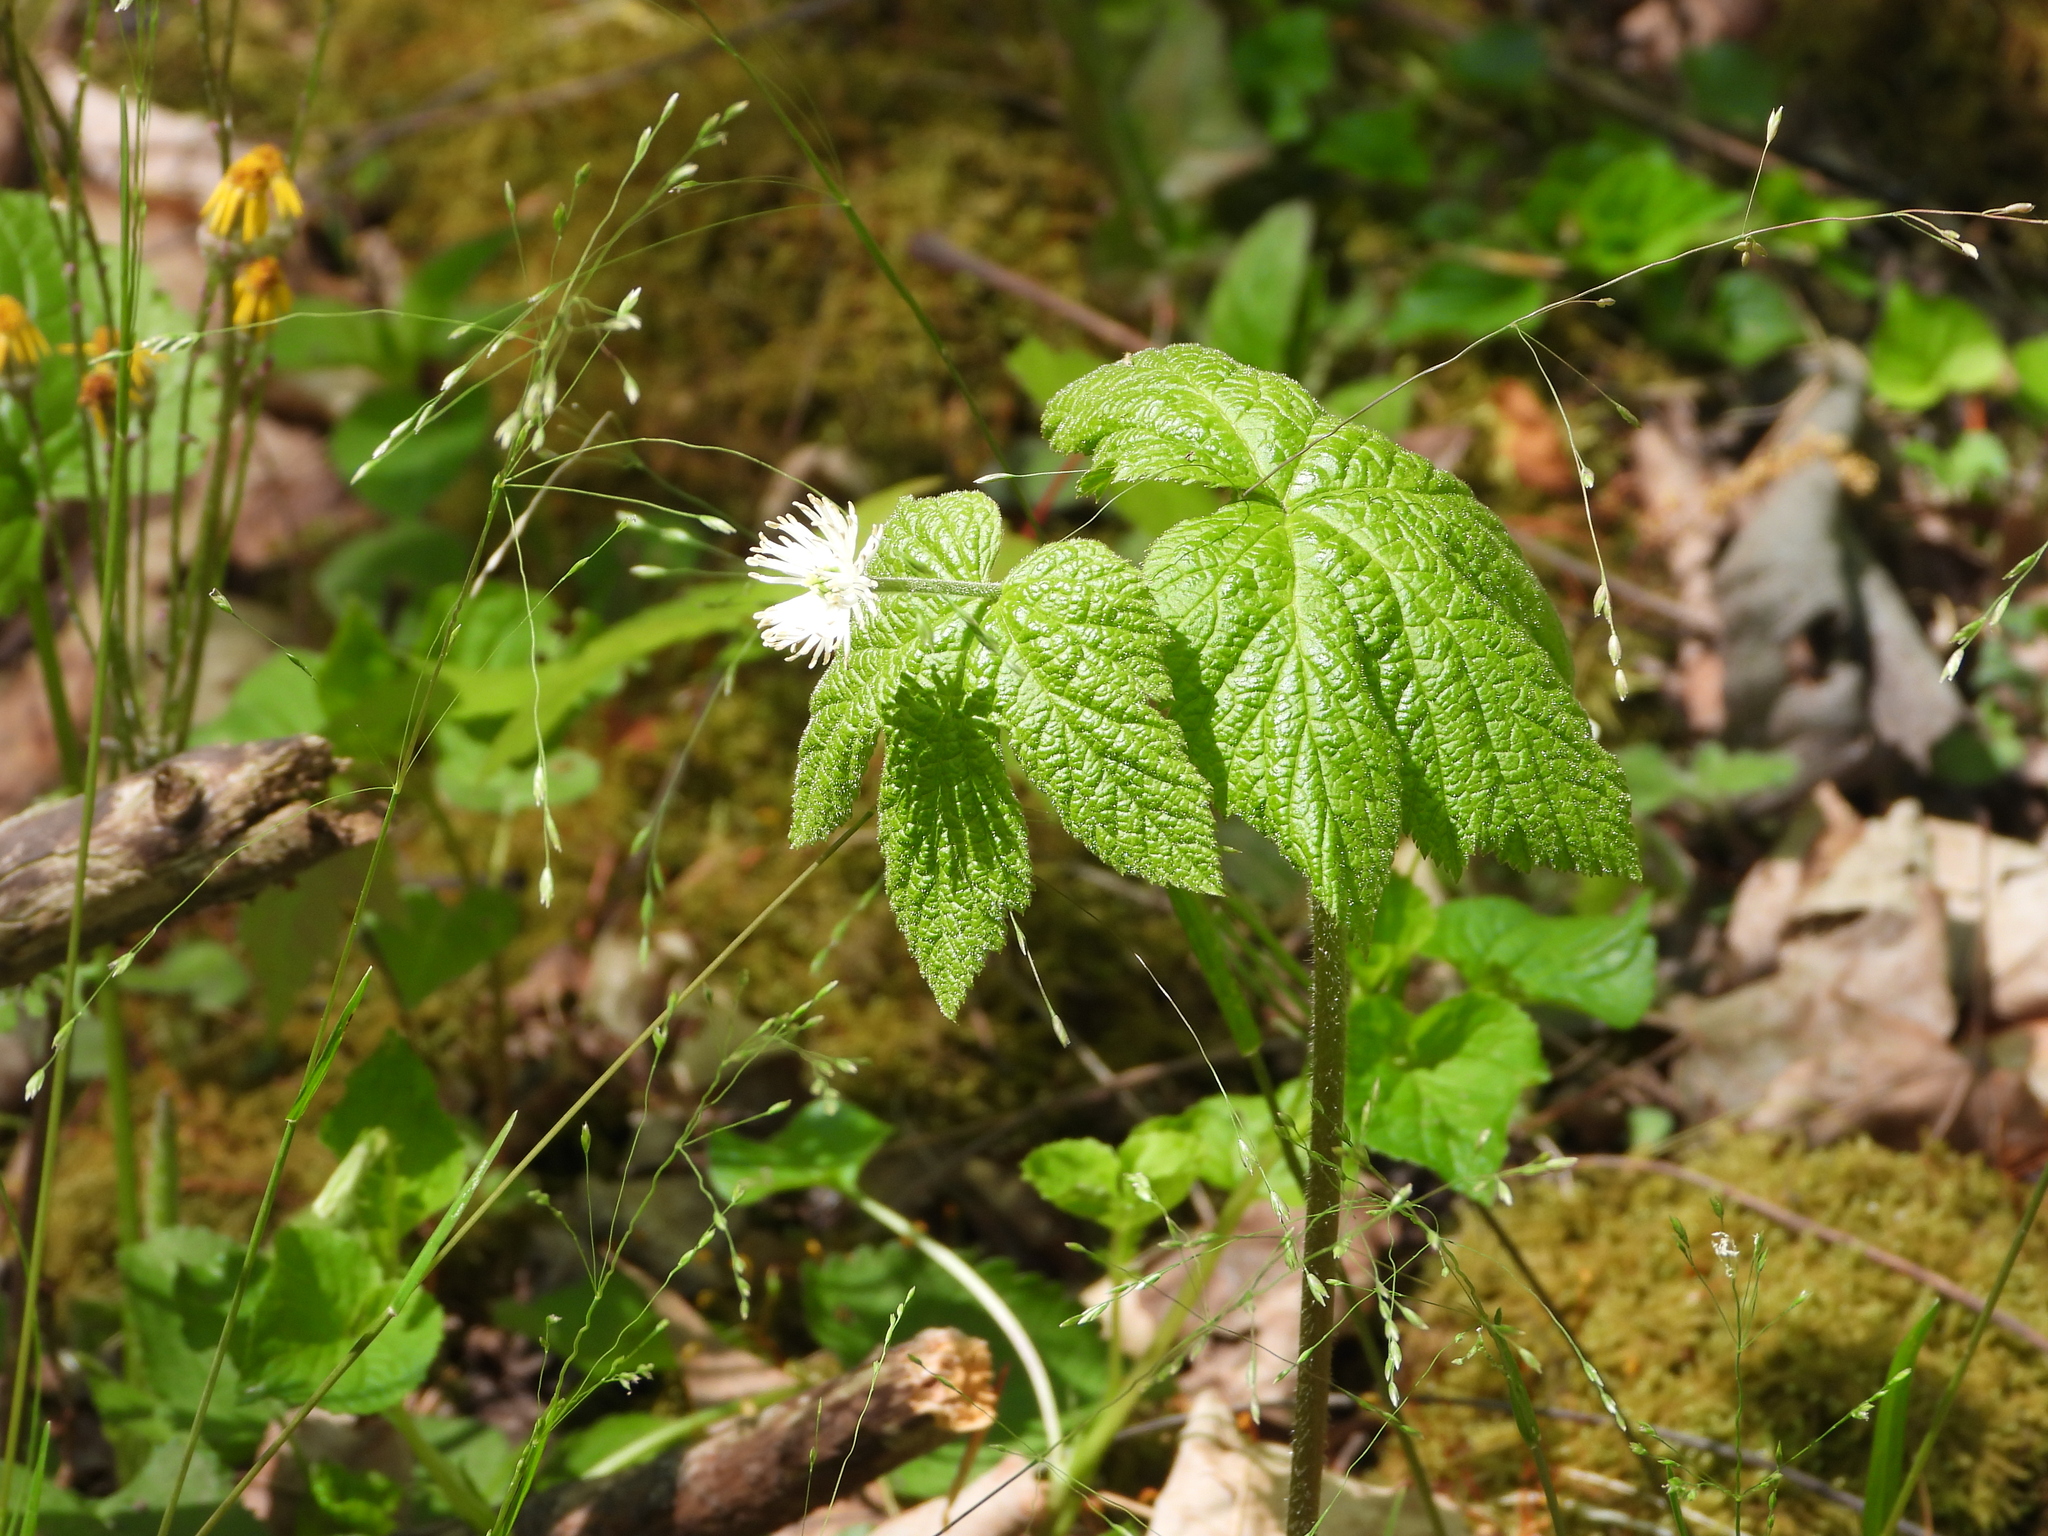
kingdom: Plantae
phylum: Tracheophyta
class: Magnoliopsida
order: Ranunculales
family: Ranunculaceae
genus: Hydrastis
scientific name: Hydrastis canadensis
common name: Goldenseal
